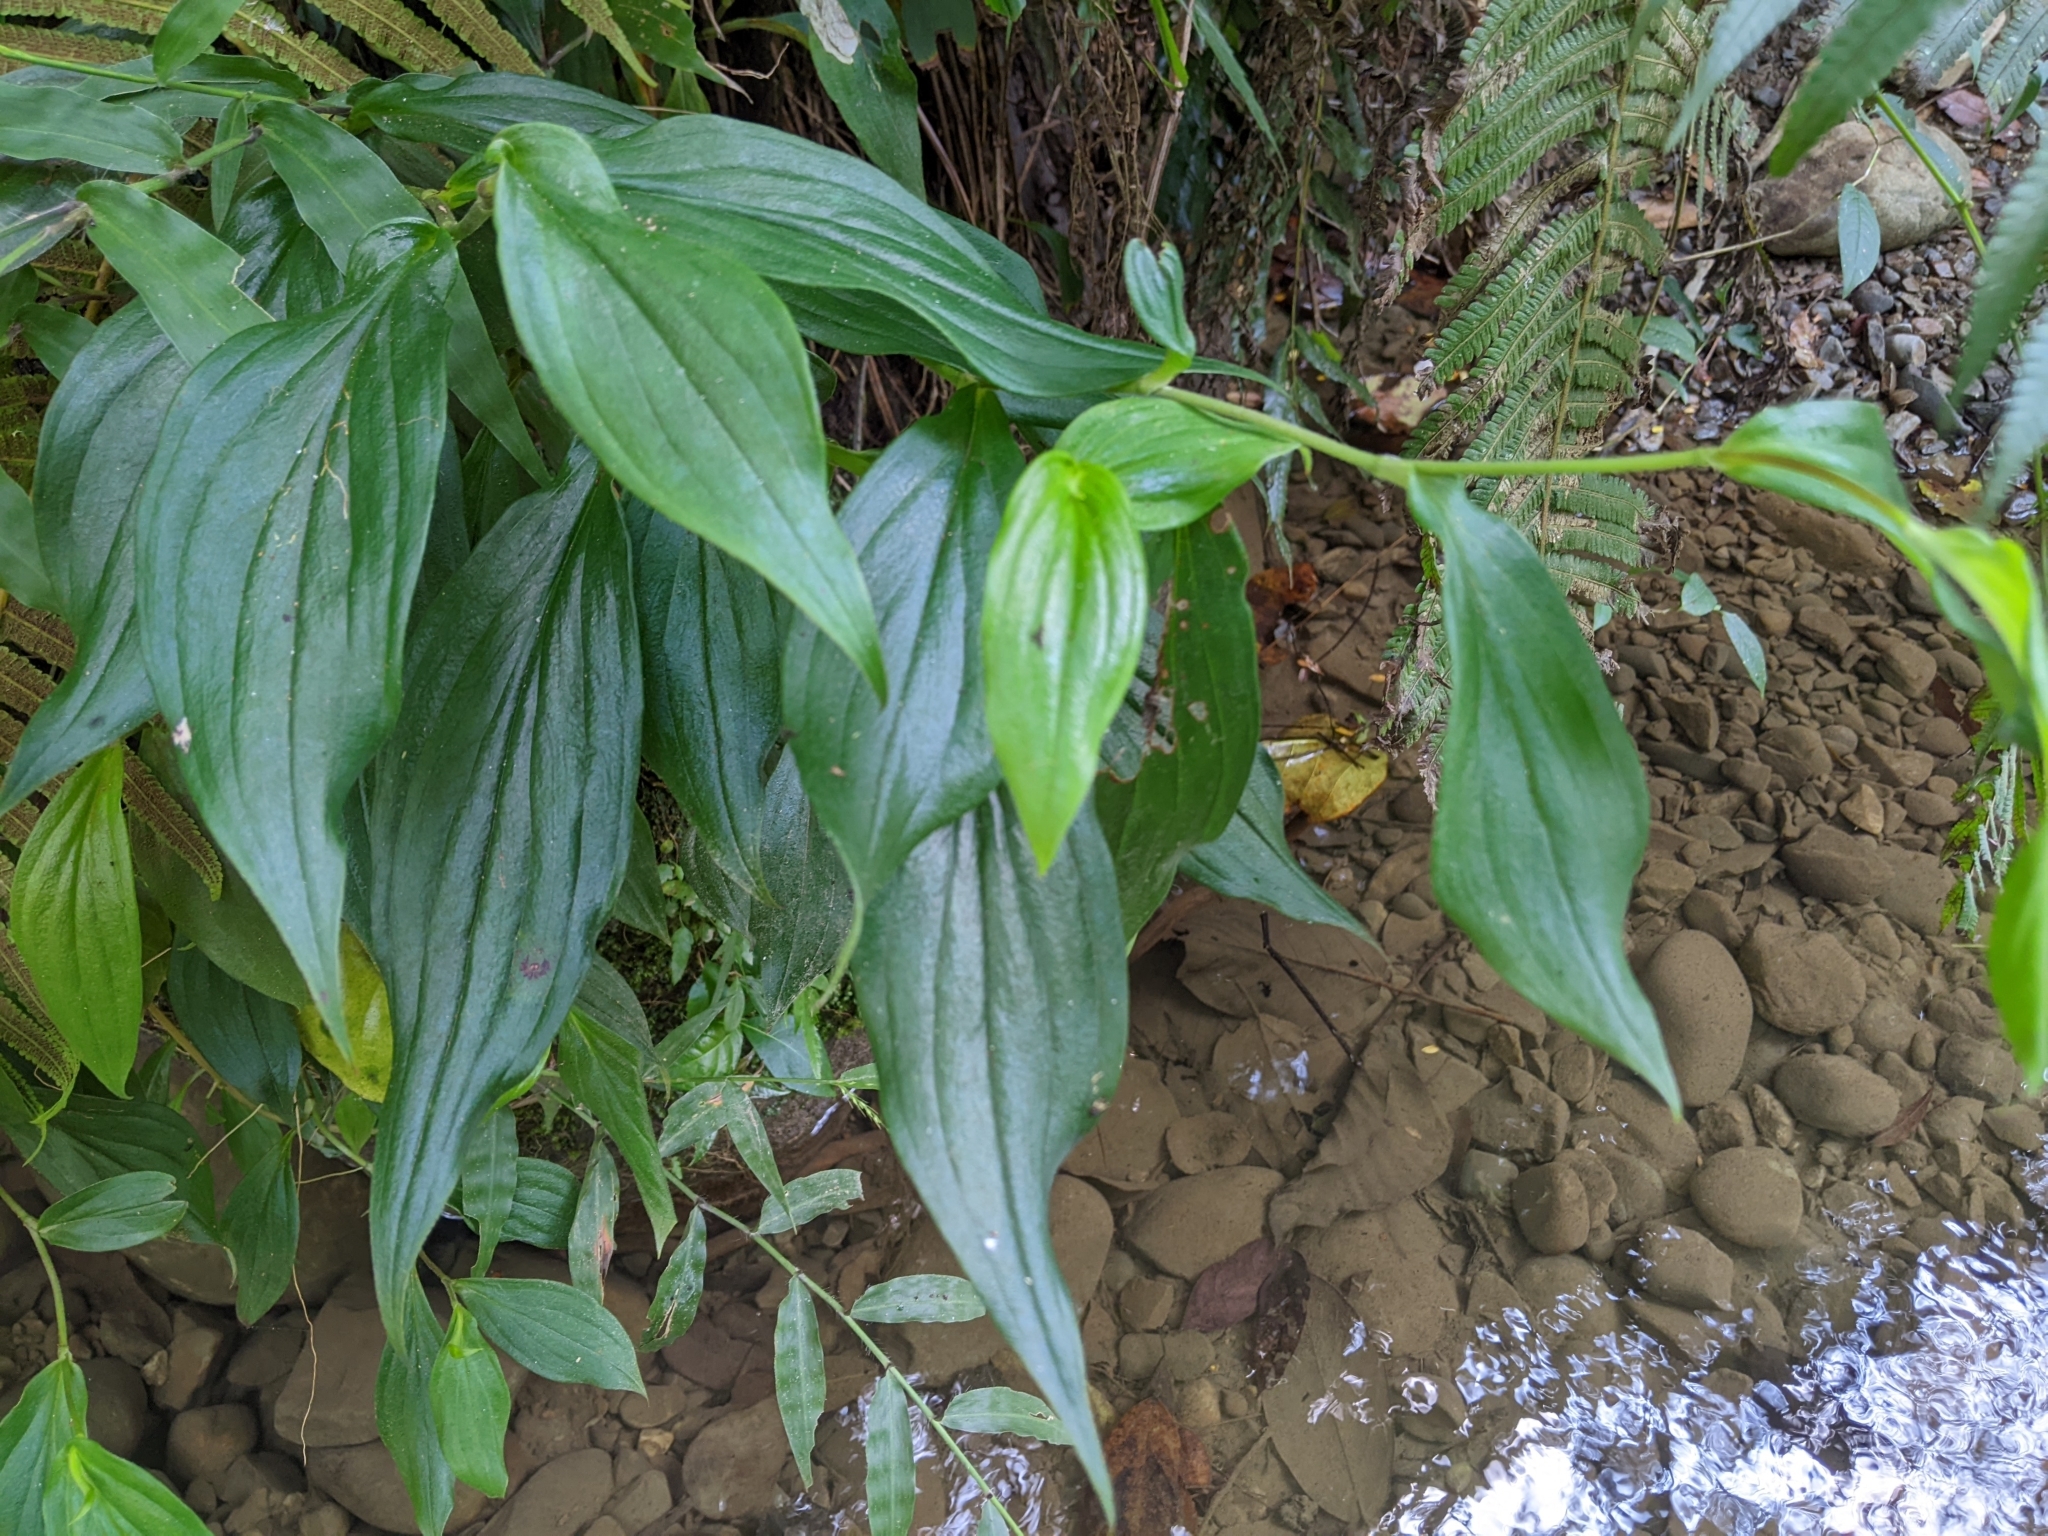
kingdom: Plantae
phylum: Tracheophyta
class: Liliopsida
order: Liliales
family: Liliaceae
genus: Tricyrtis
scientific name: Tricyrtis formosana
